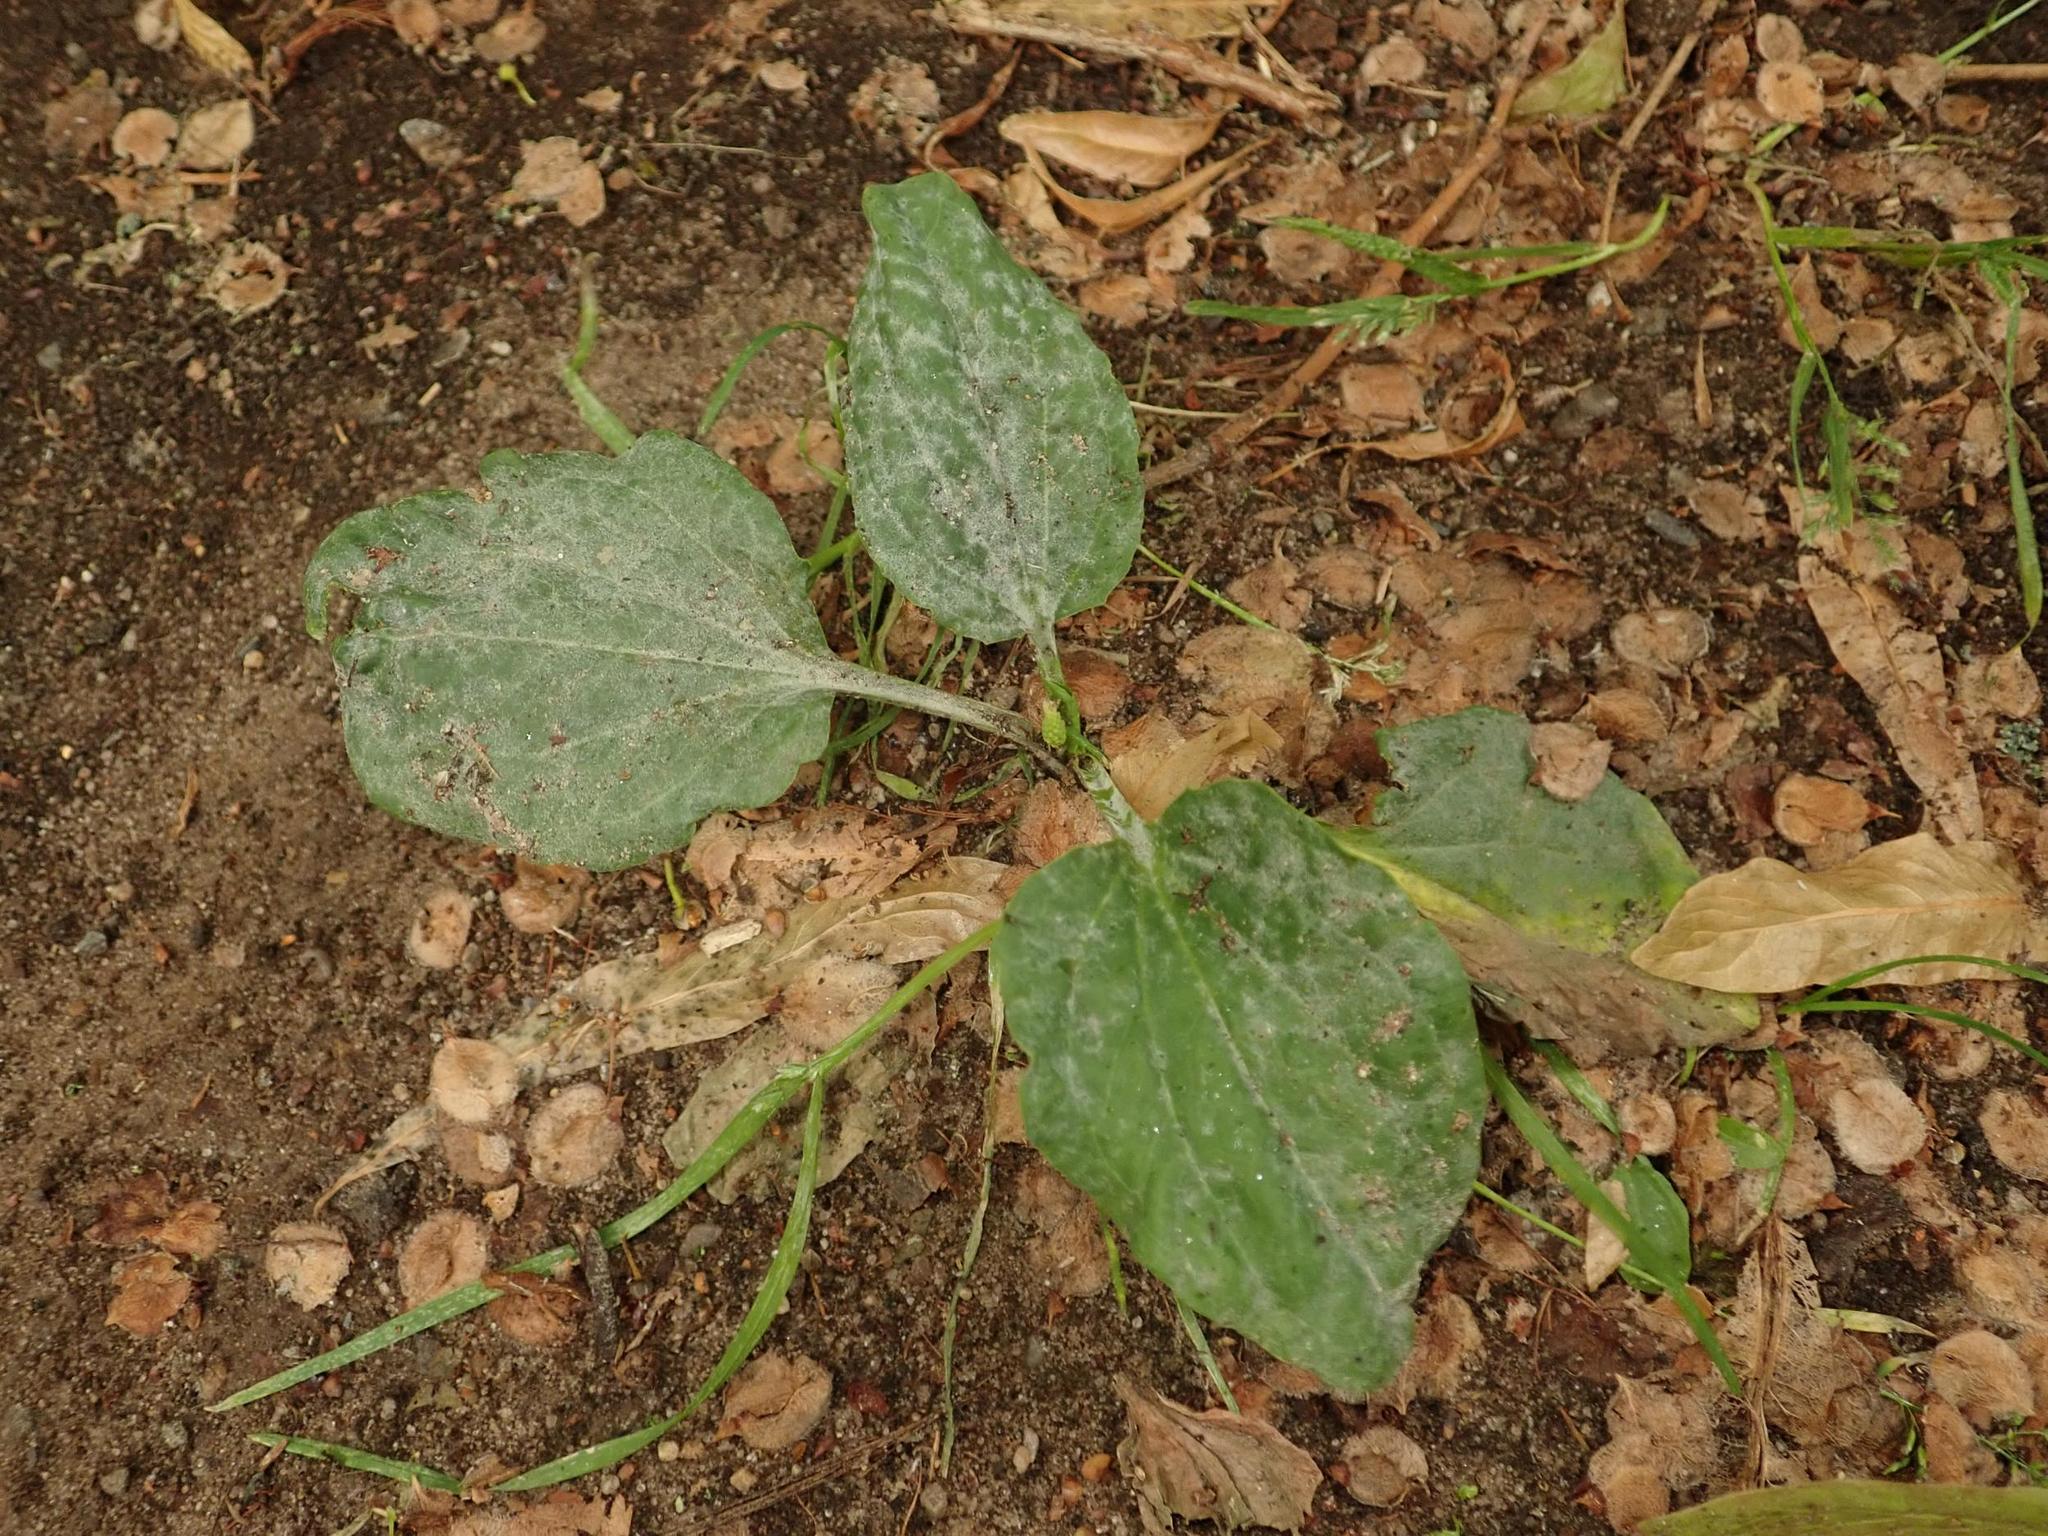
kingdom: Plantae
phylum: Tracheophyta
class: Magnoliopsida
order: Lamiales
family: Plantaginaceae
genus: Plantago
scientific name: Plantago major
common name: Common plantain
